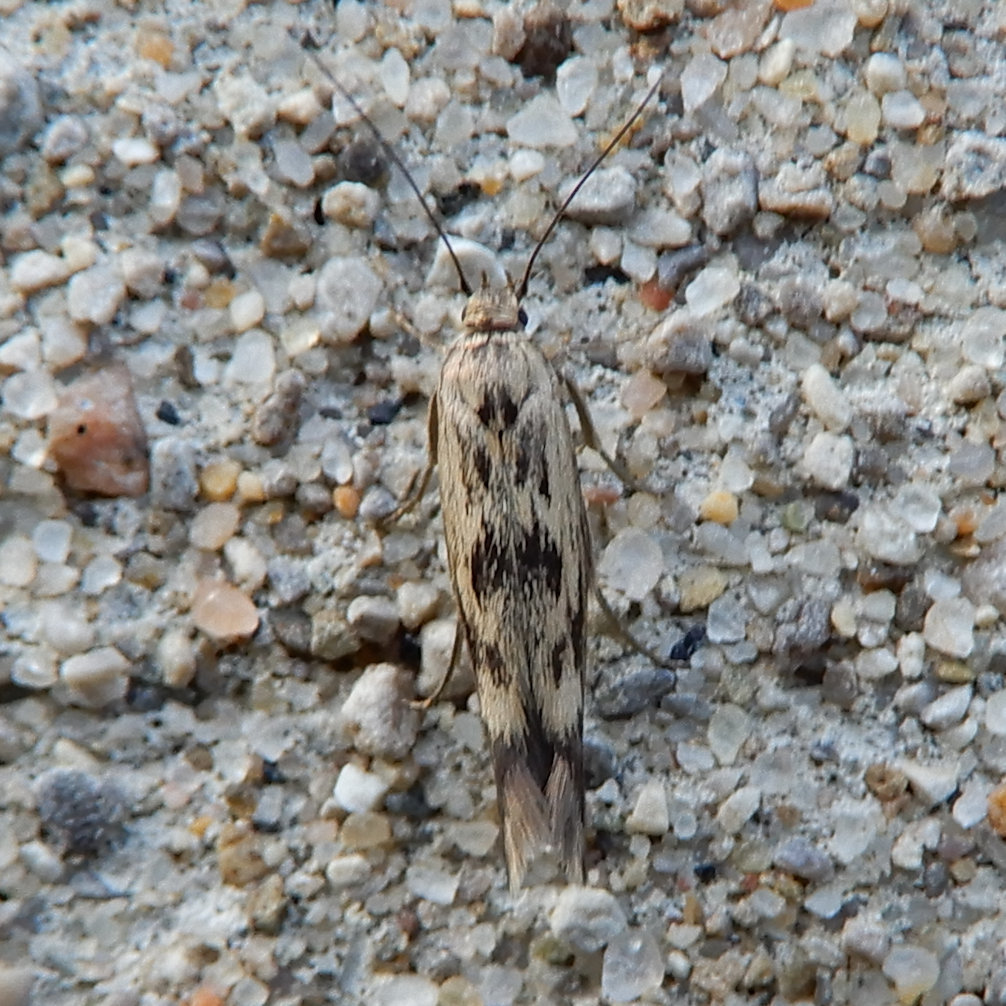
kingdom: Animalia
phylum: Arthropoda
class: Insecta
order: Lepidoptera
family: Scythrididae
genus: Scythris
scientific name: Scythris limbella
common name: Goosefoot owlet
